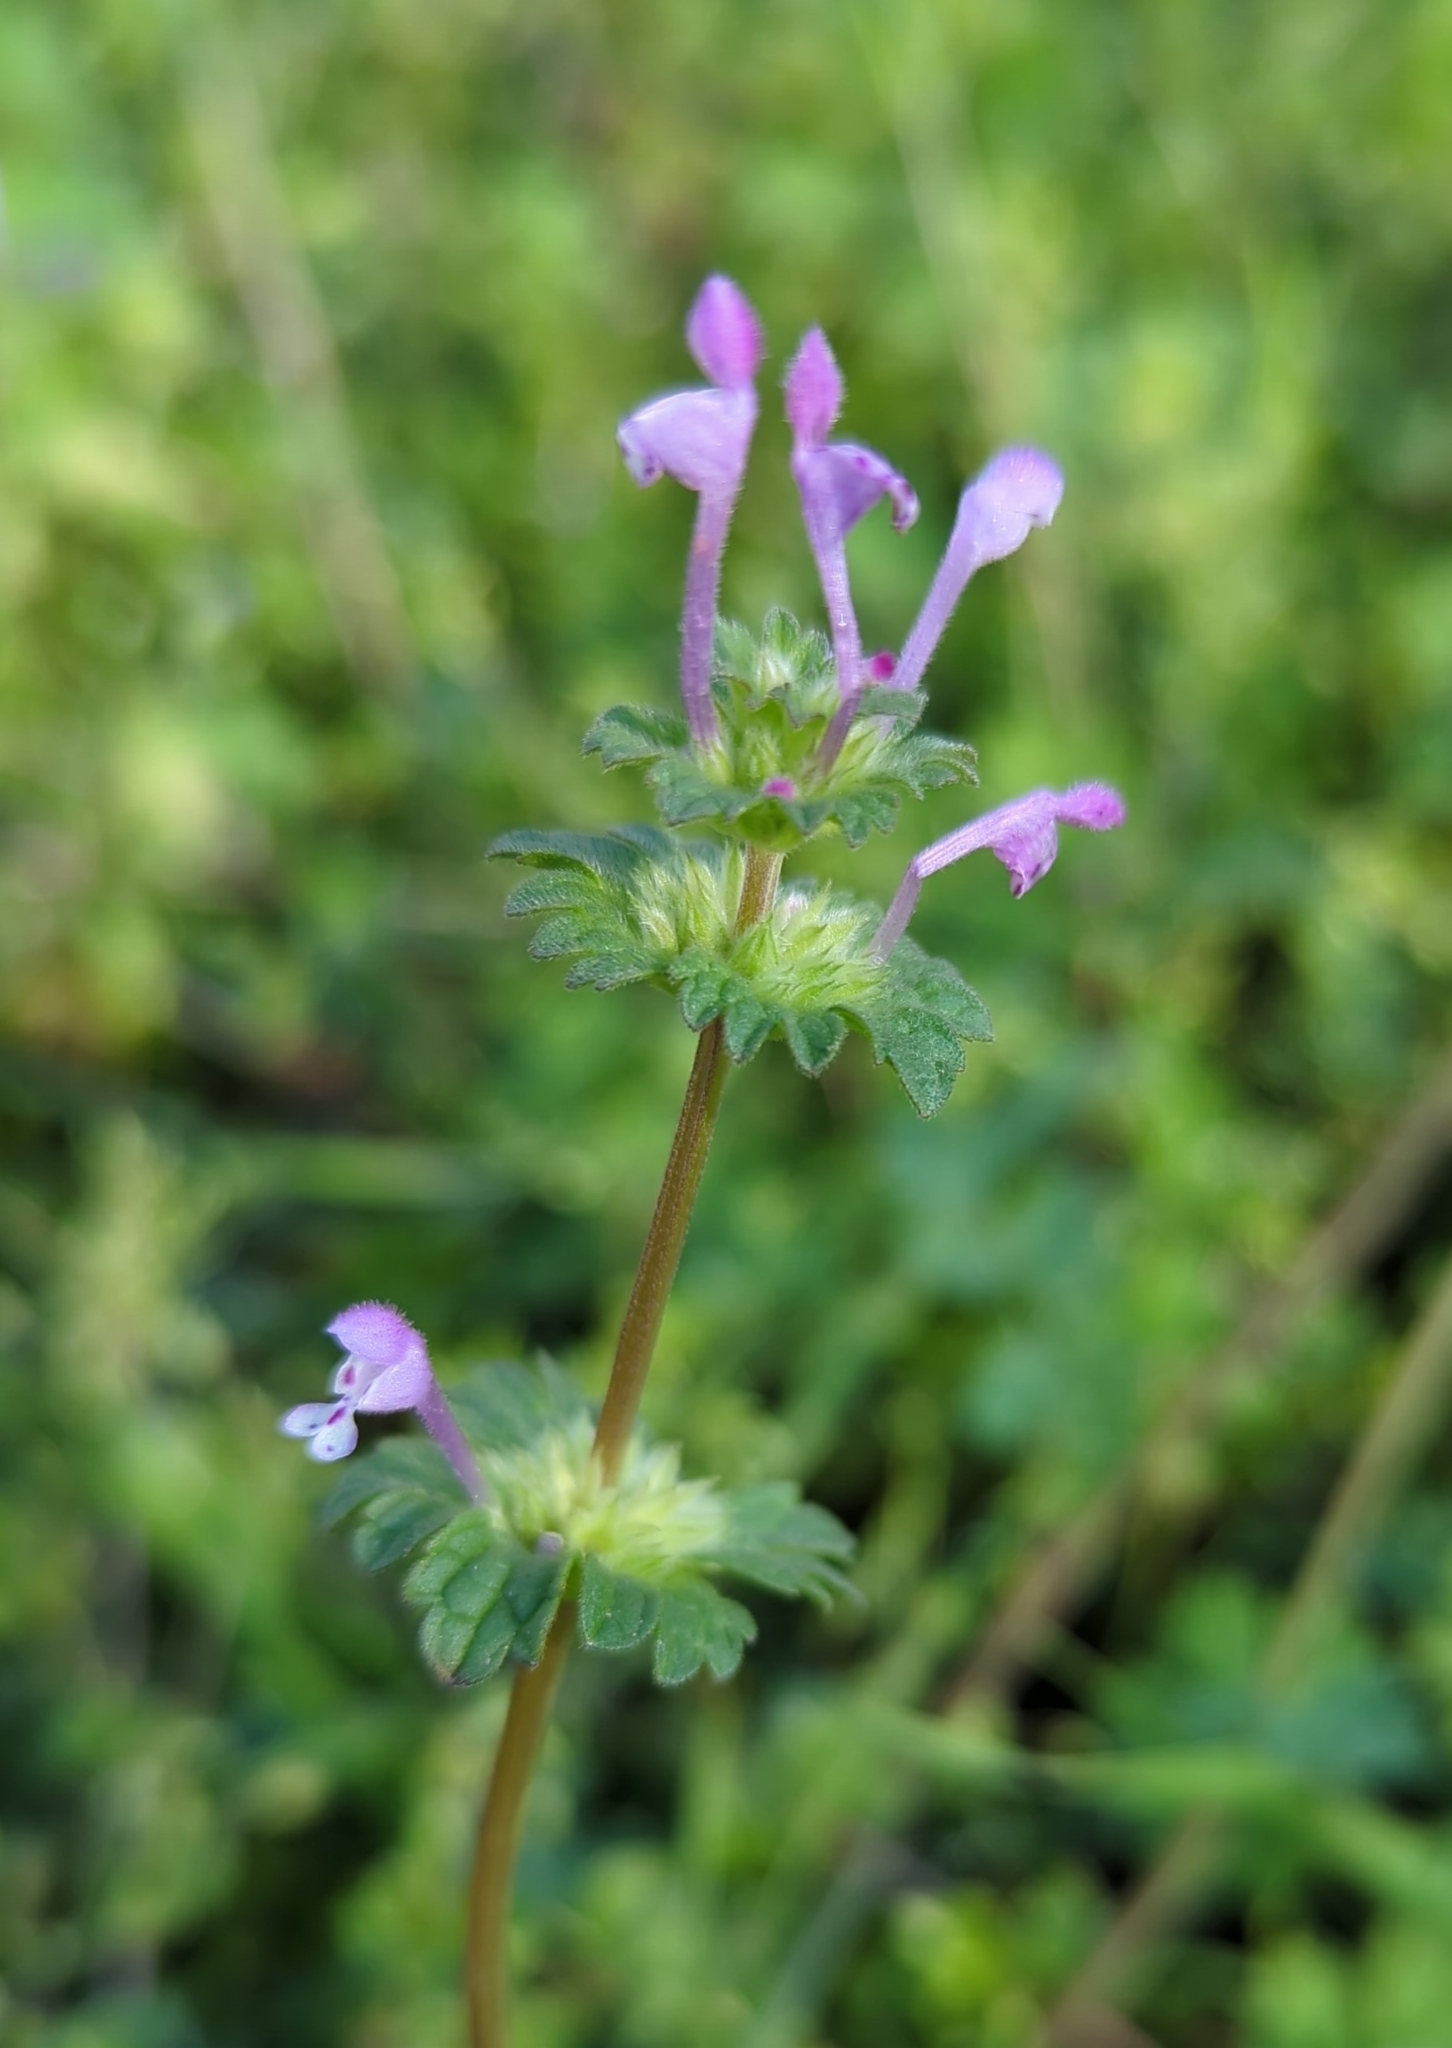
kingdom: Plantae
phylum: Tracheophyta
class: Magnoliopsida
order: Lamiales
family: Lamiaceae
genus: Lamium
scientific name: Lamium amplexicaule
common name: Henbit dead-nettle
